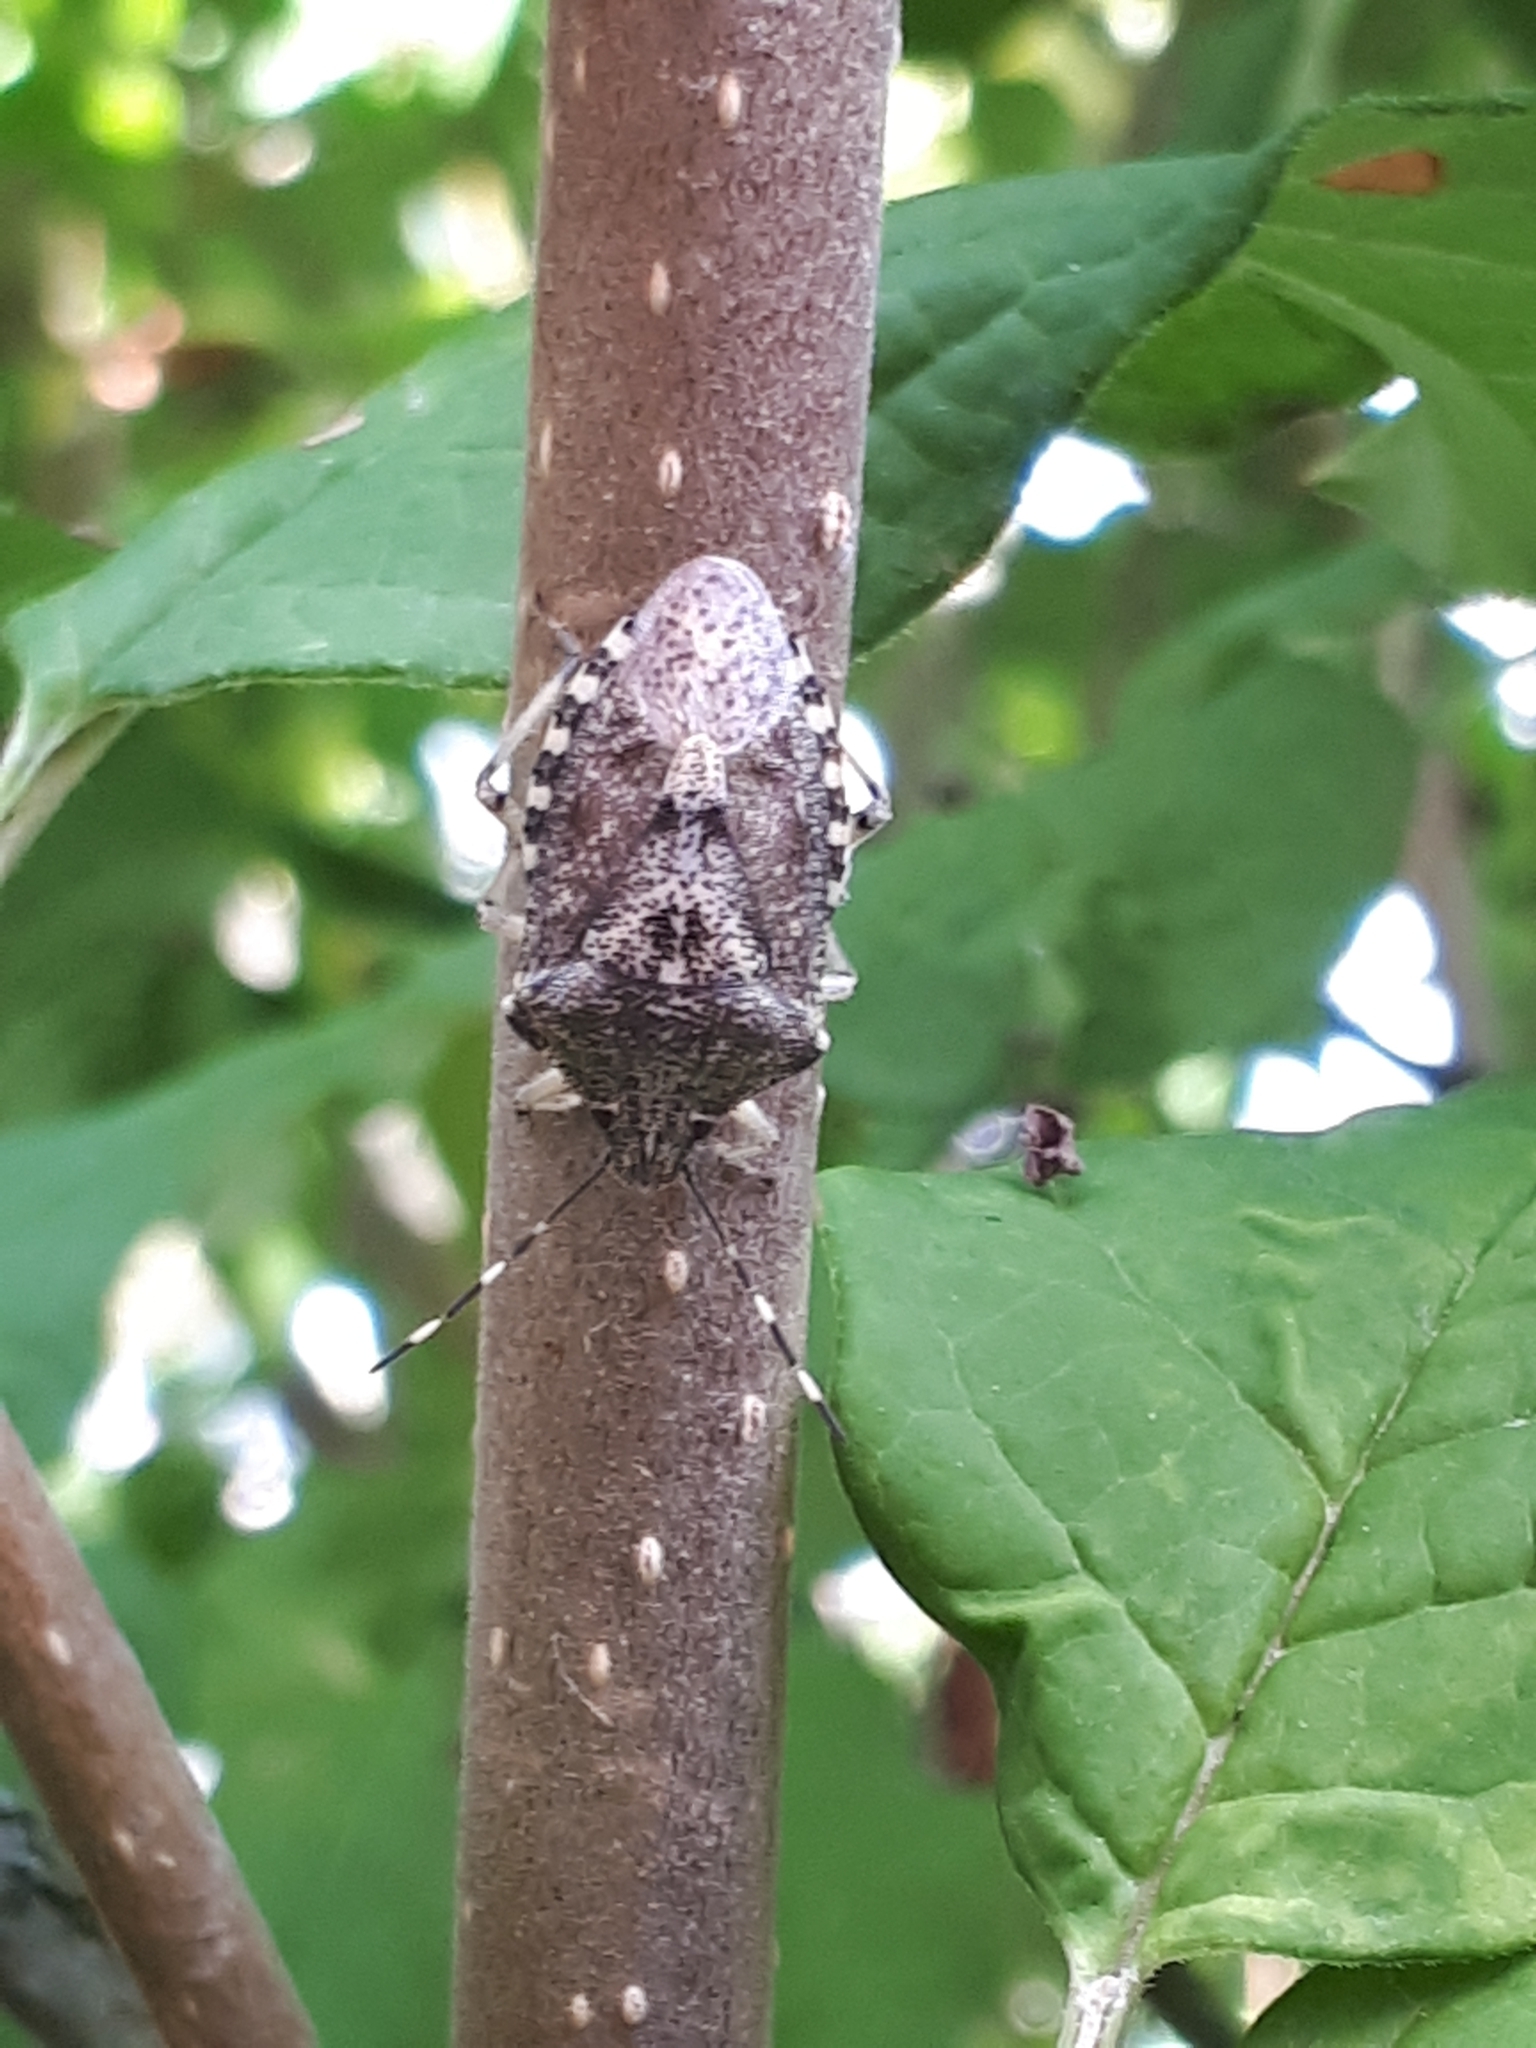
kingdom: Animalia
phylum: Arthropoda
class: Insecta
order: Hemiptera
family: Pentatomidae
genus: Rhaphigaster
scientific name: Rhaphigaster nebulosa
